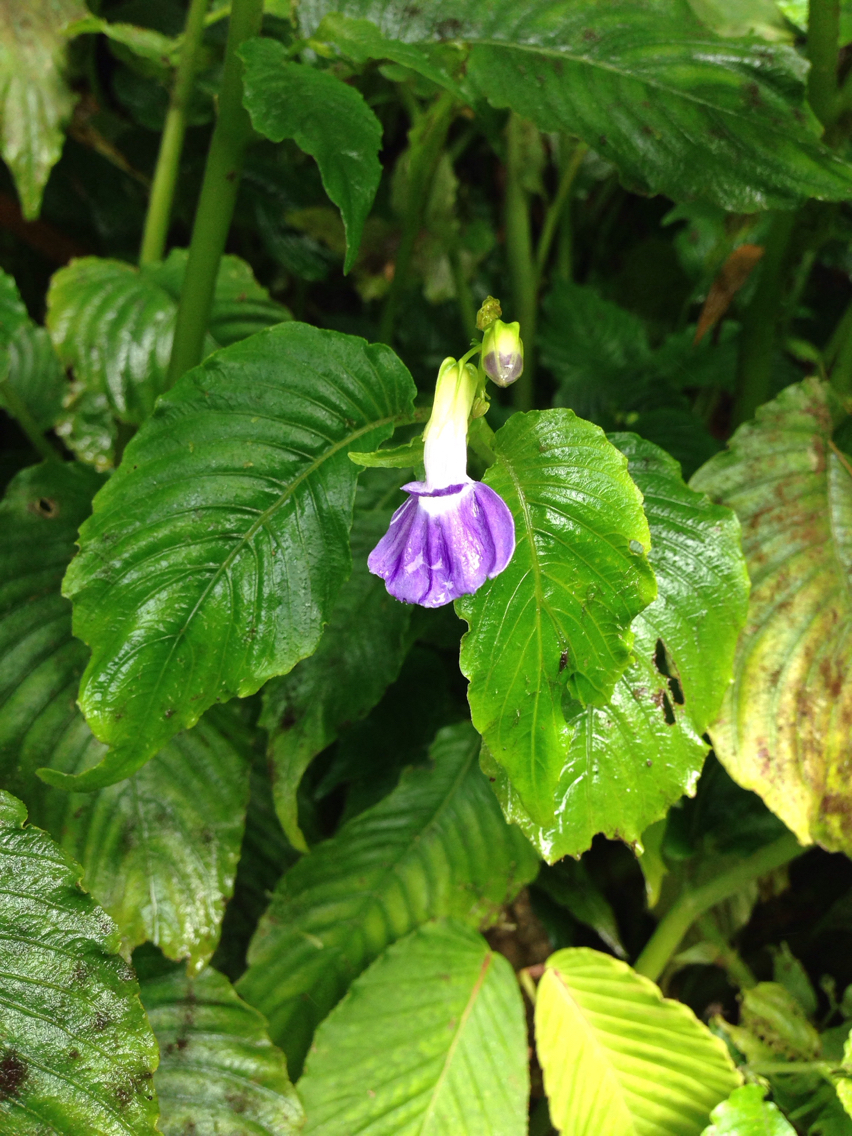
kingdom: Plantae
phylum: Tracheophyta
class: Magnoliopsida
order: Lamiales
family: Gesneriaceae
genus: Rhynchoglossum
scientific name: Rhynchoglossum azureum
